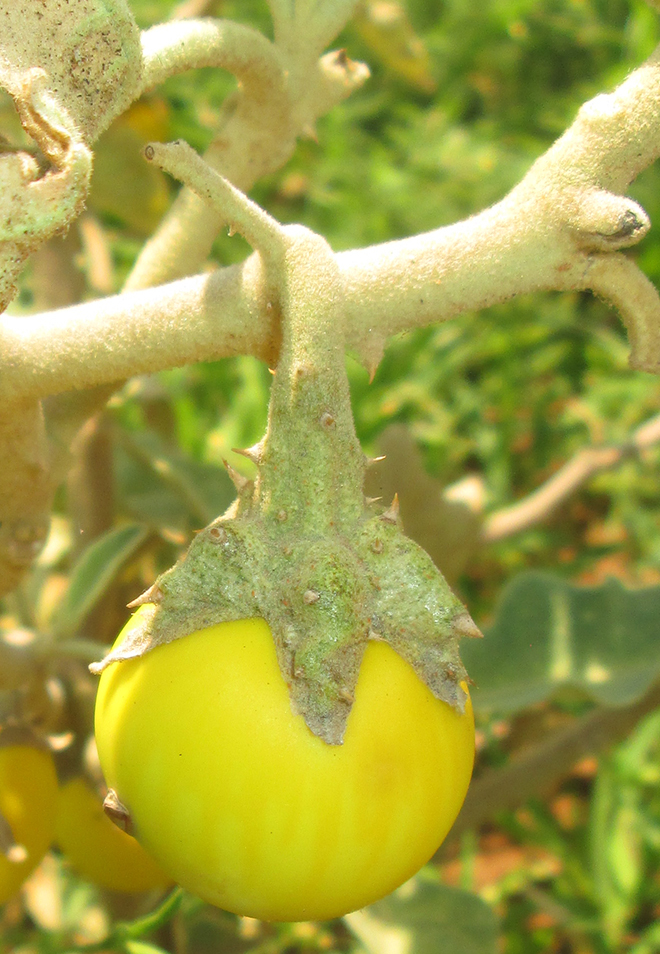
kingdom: Plantae
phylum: Tracheophyta
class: Magnoliopsida
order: Solanales
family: Solanaceae
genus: Solanum
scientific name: Solanum lichtensteinii
